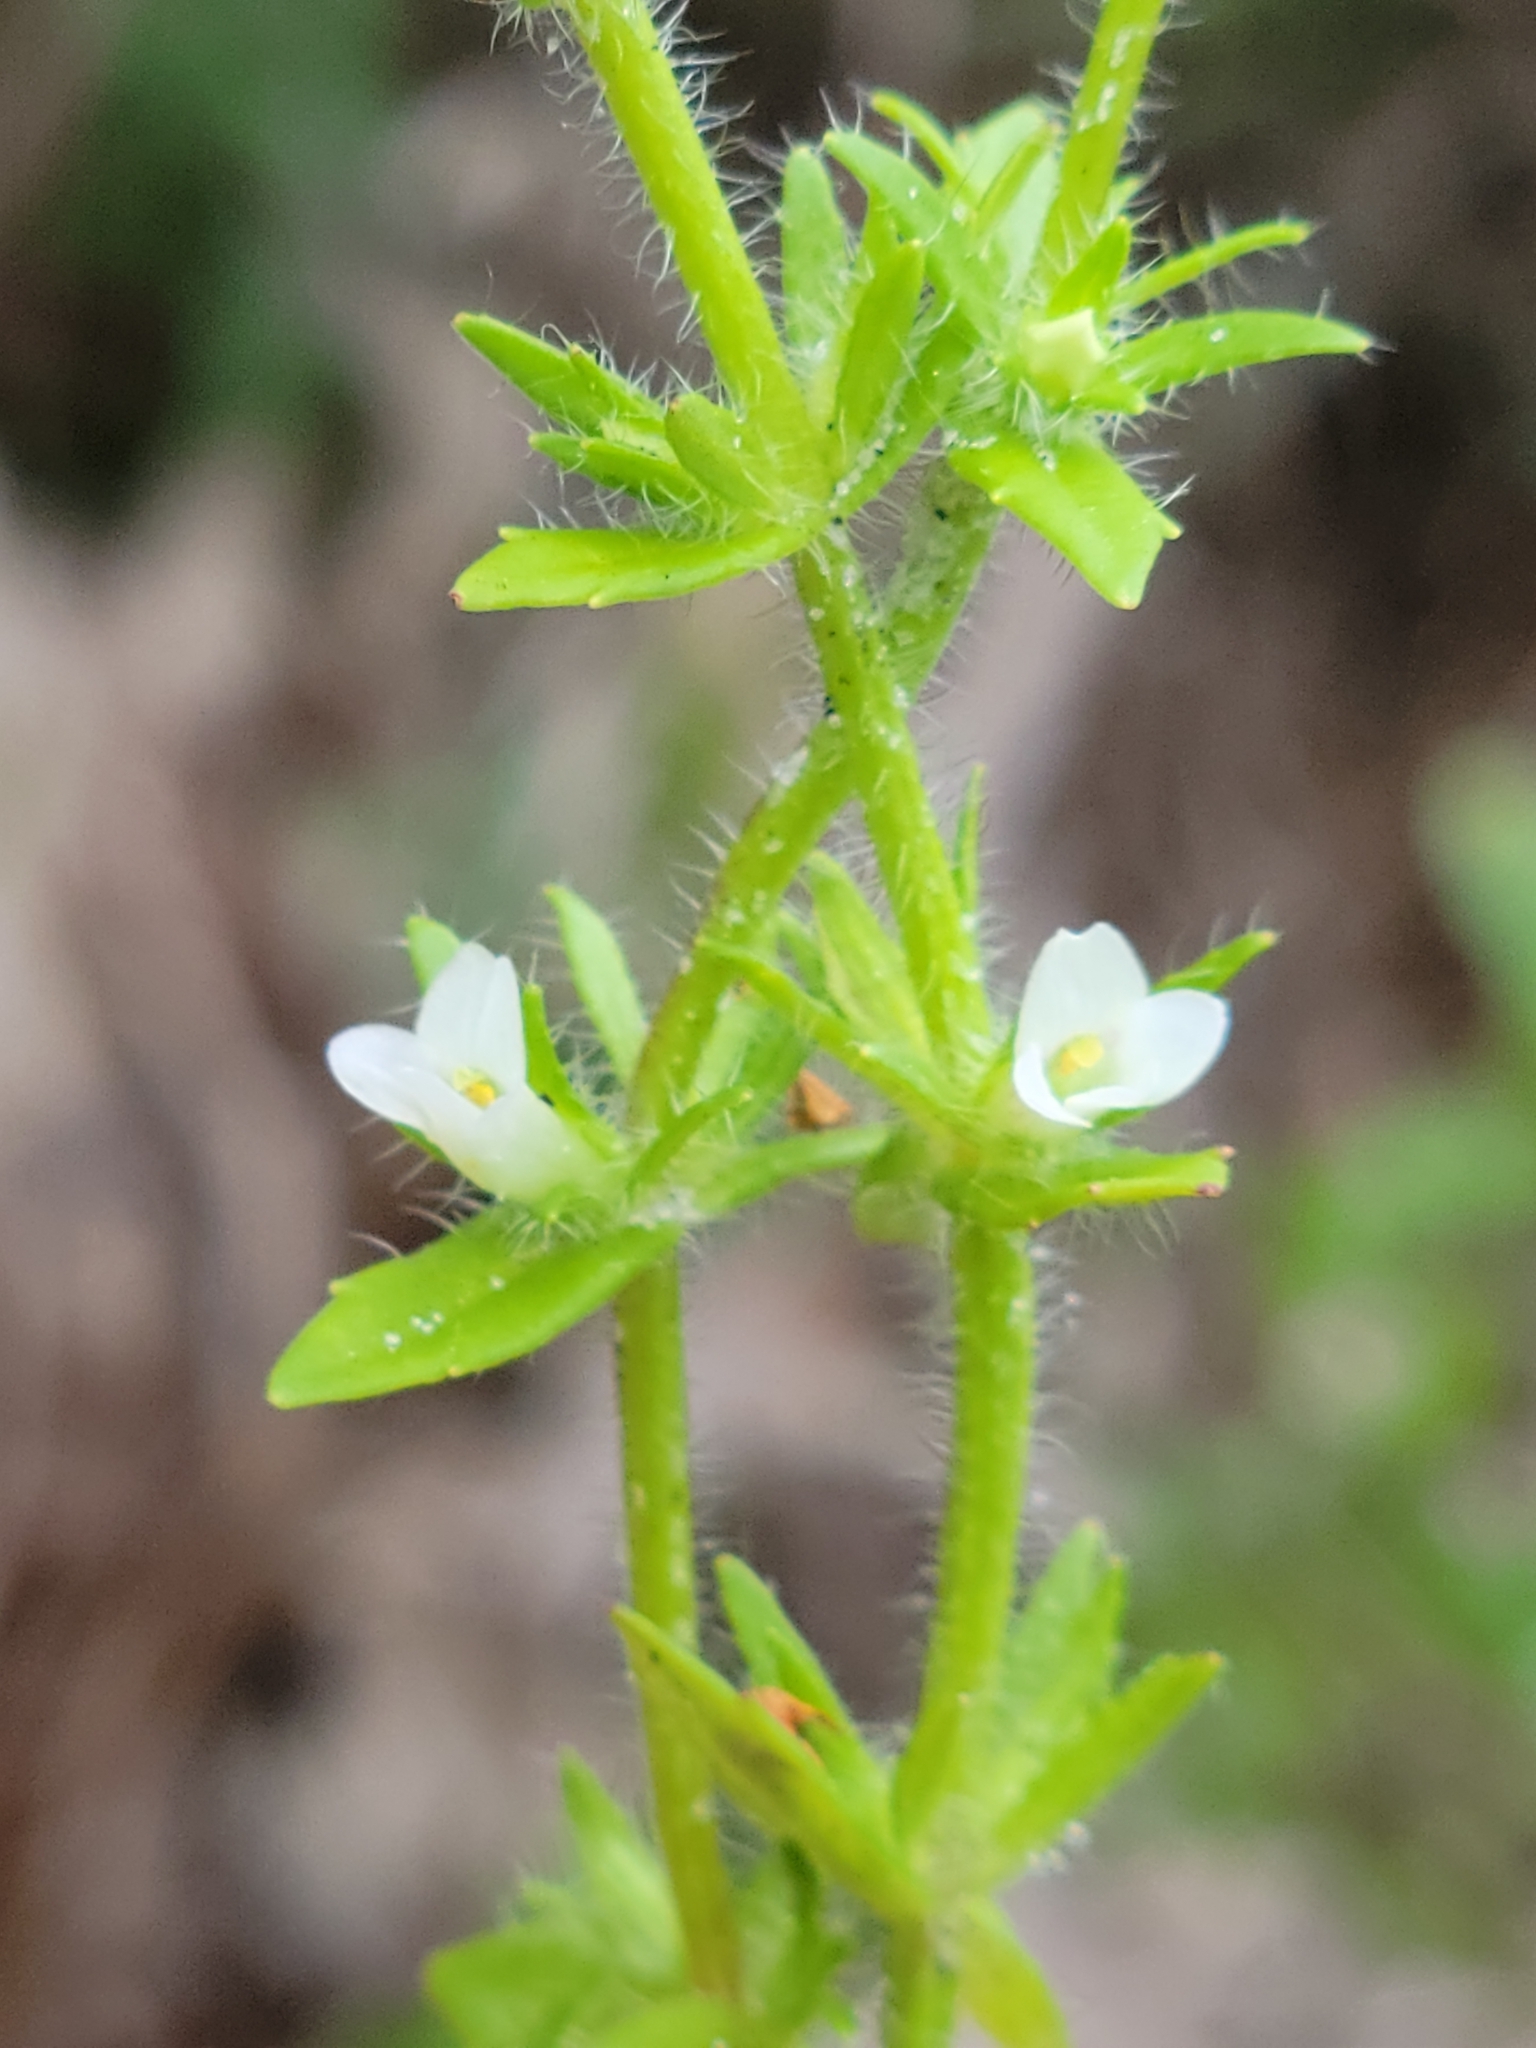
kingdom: Plantae
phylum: Tracheophyta
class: Magnoliopsida
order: Lamiales
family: Plantaginaceae
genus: Gratiola
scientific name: Gratiola pilosa
